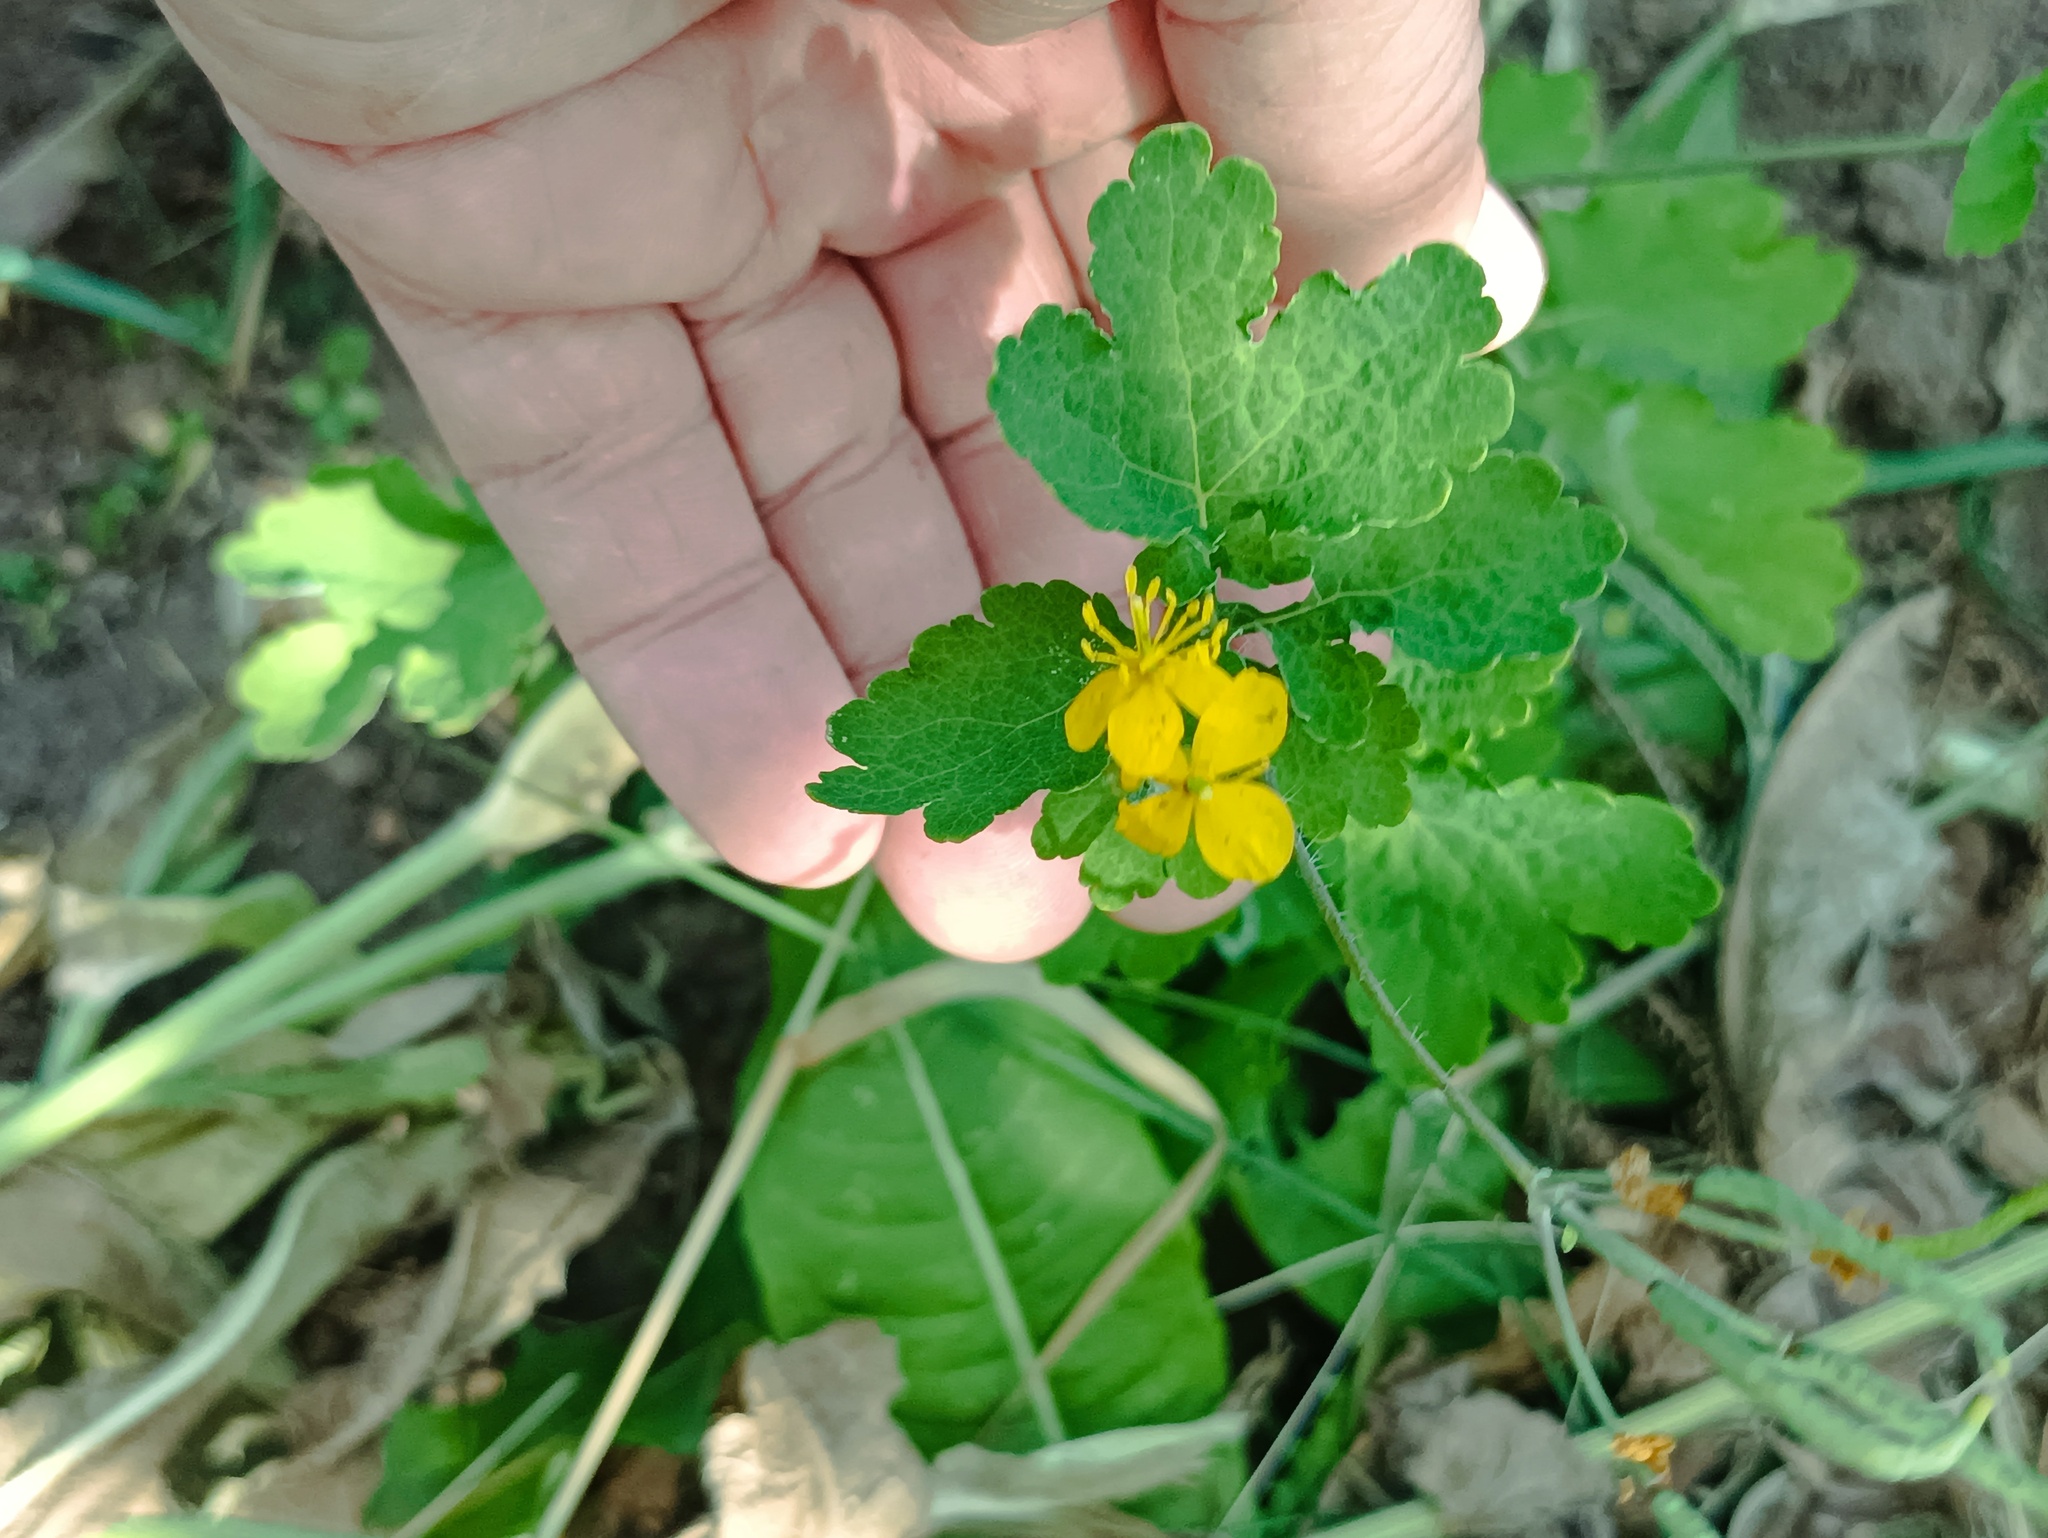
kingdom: Plantae
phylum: Tracheophyta
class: Magnoliopsida
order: Ranunculales
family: Papaveraceae
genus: Chelidonium
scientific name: Chelidonium majus
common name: Greater celandine
